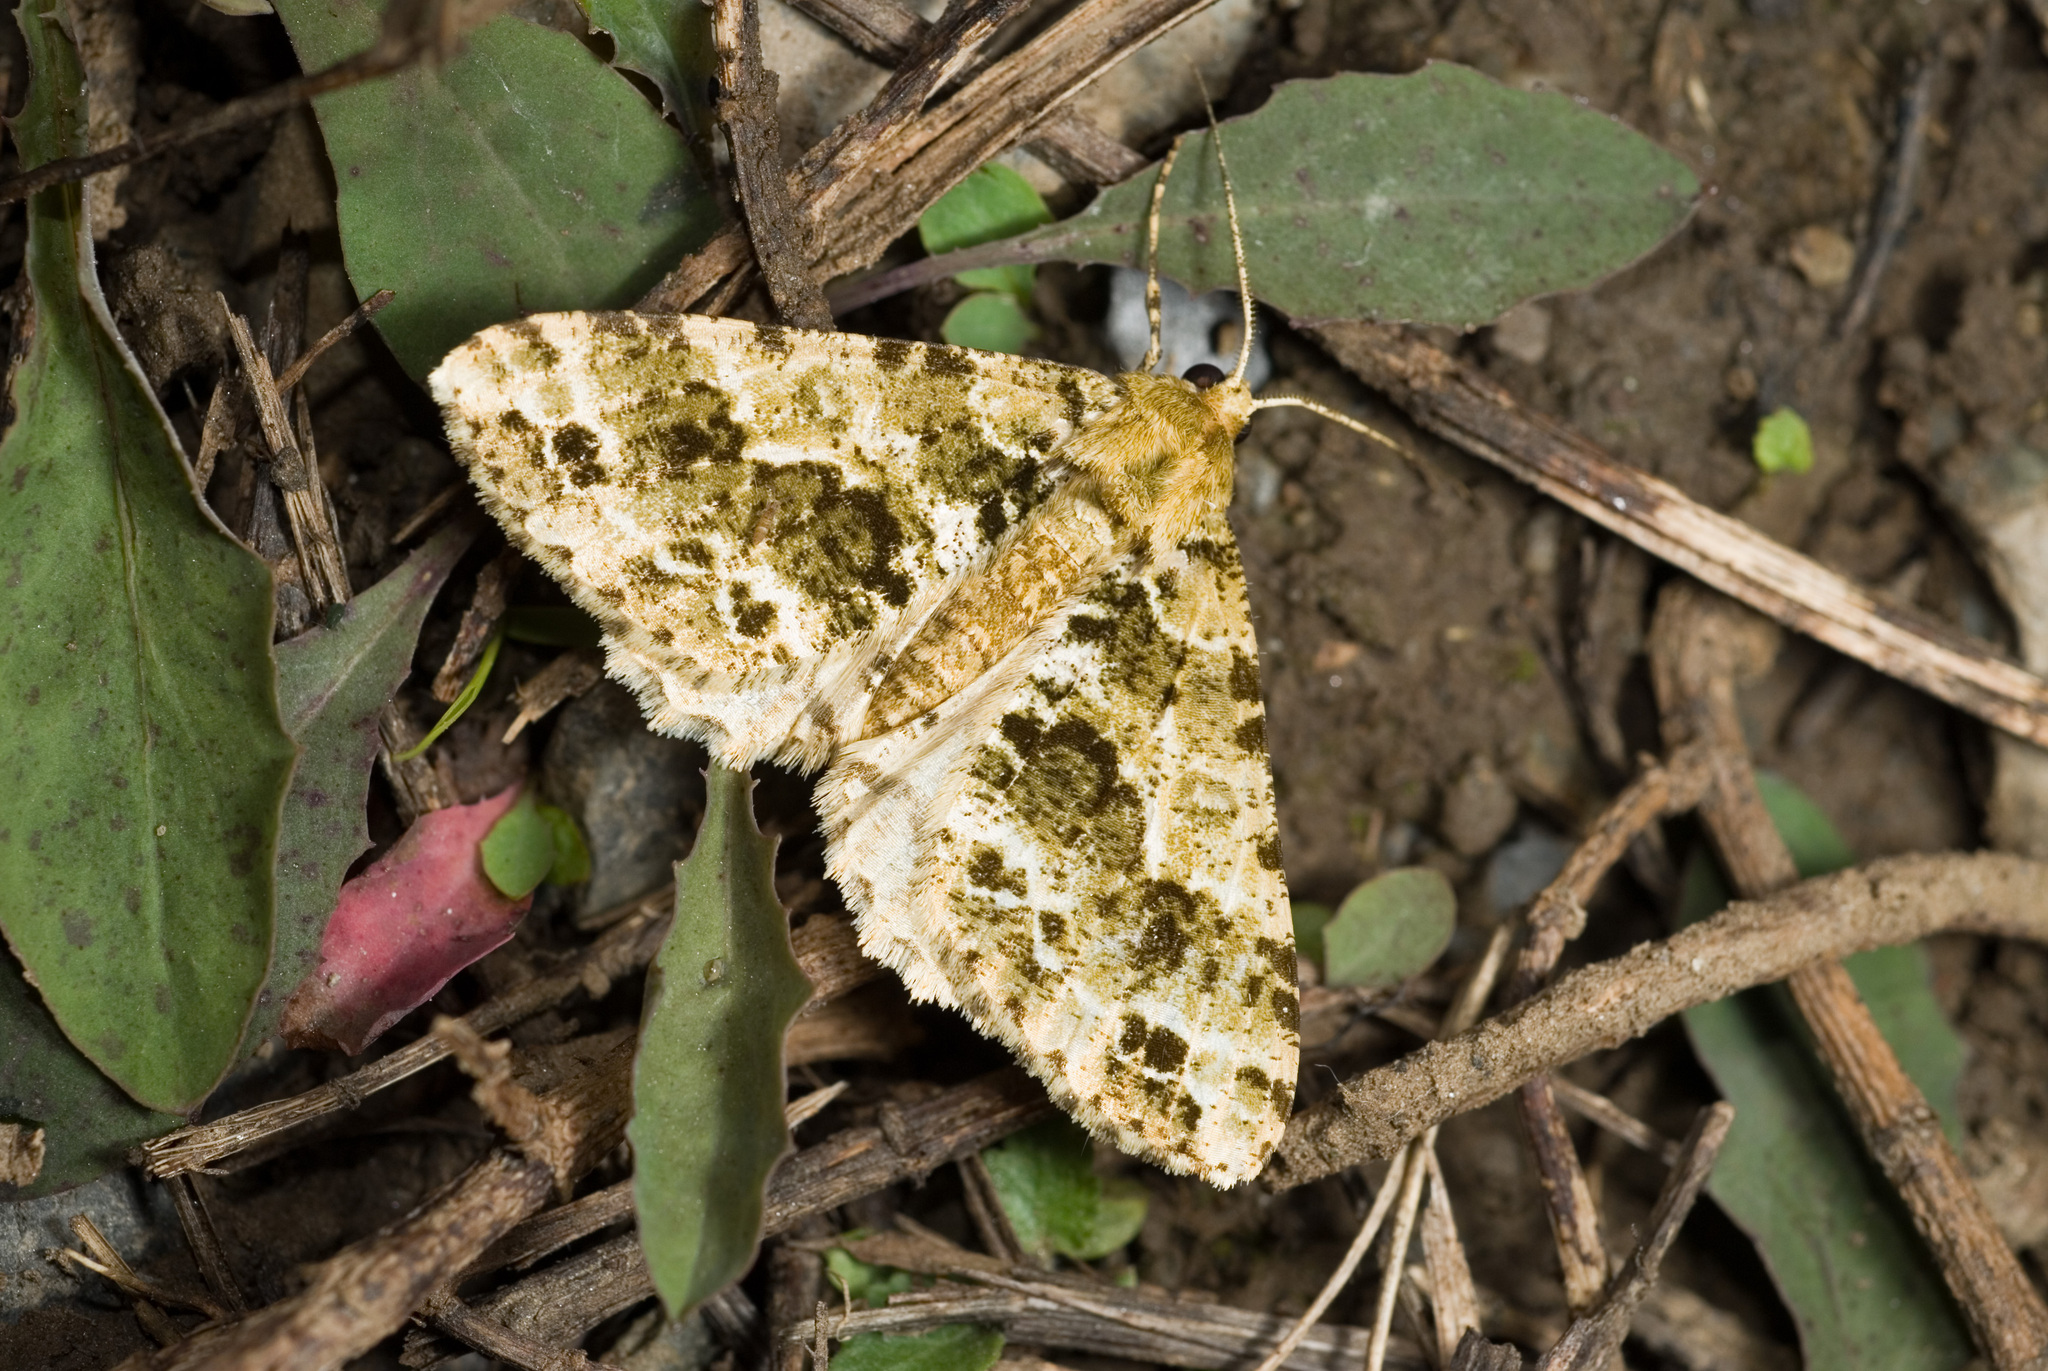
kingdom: Animalia
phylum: Arthropoda
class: Insecta
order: Lepidoptera
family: Geometridae
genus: Arichanna
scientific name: Arichanna marginata
